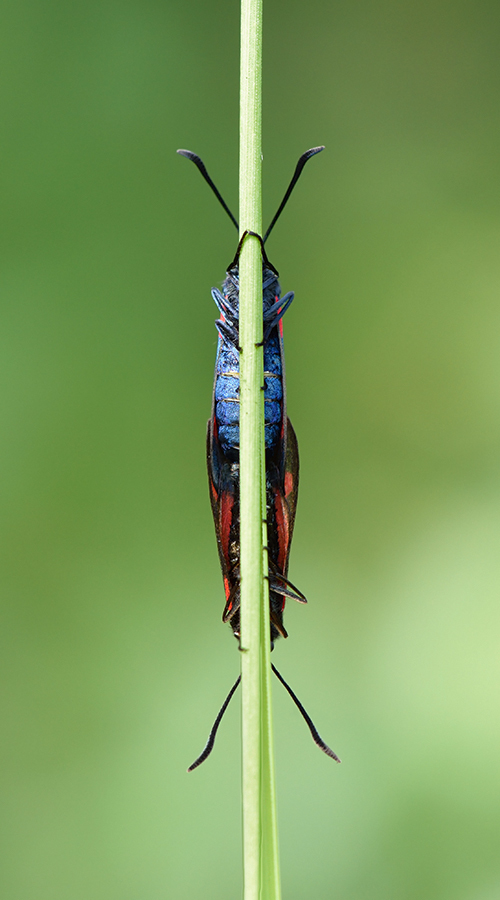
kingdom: Animalia
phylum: Arthropoda
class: Insecta
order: Lepidoptera
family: Zygaenidae
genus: Zygaena
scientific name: Zygaena viciae
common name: New forest burnet
